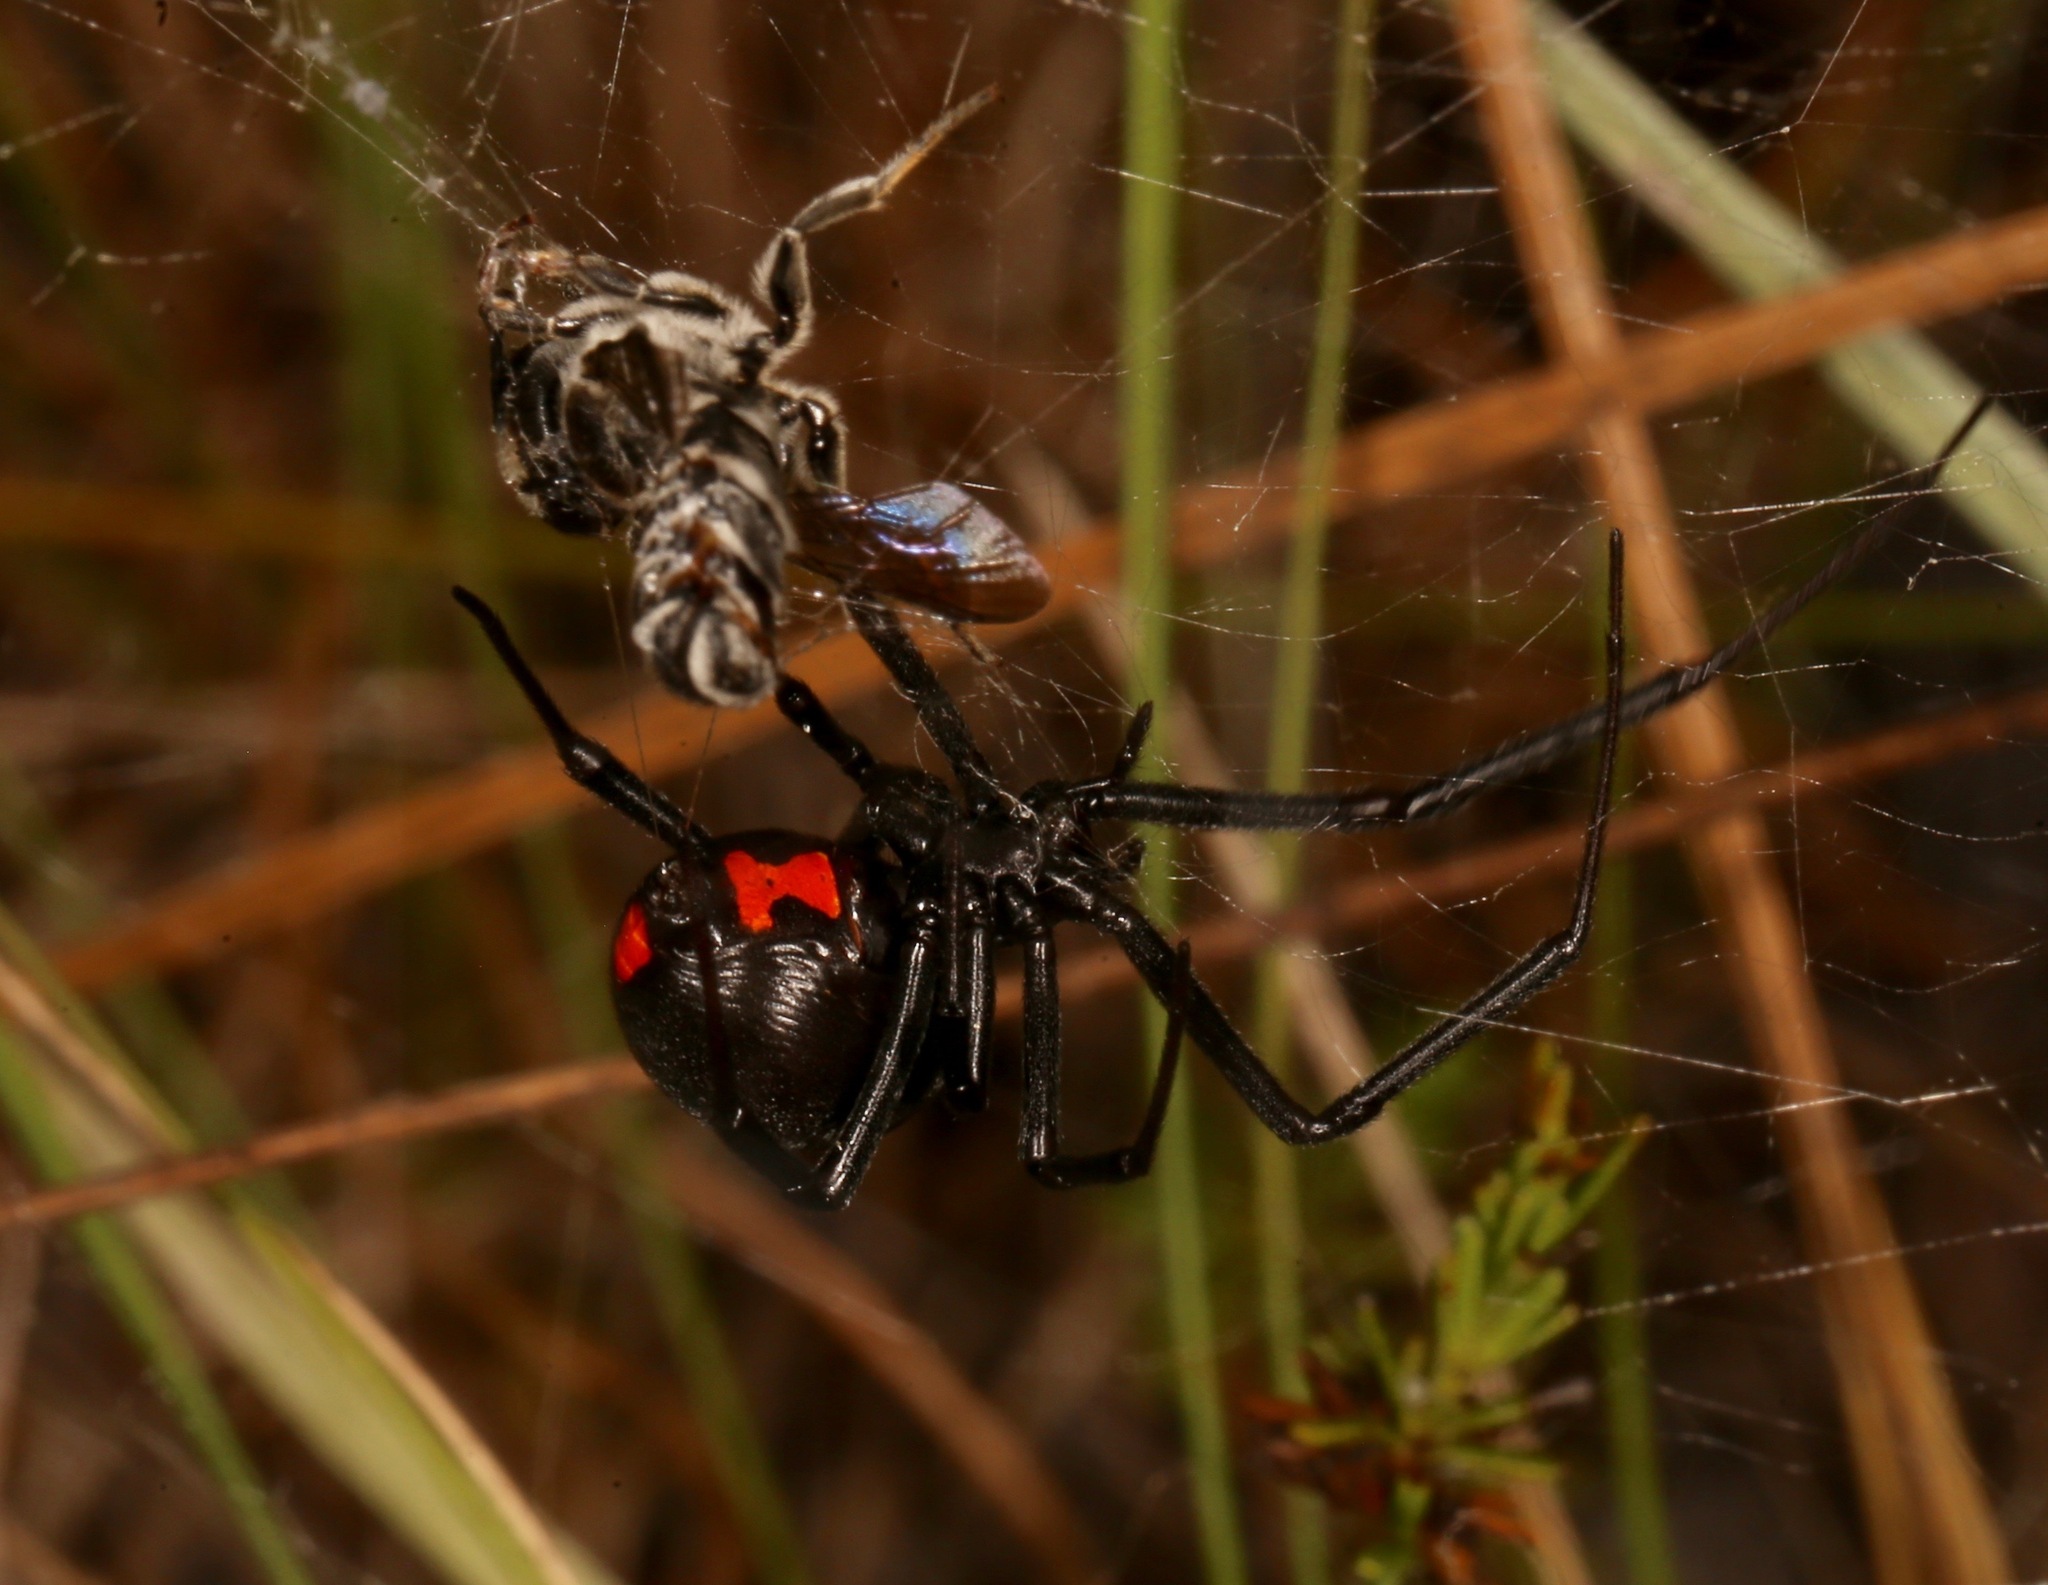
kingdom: Animalia
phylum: Arthropoda
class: Arachnida
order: Araneae
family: Theridiidae
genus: Latrodectus
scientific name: Latrodectus mactans
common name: Cobweb spiders
